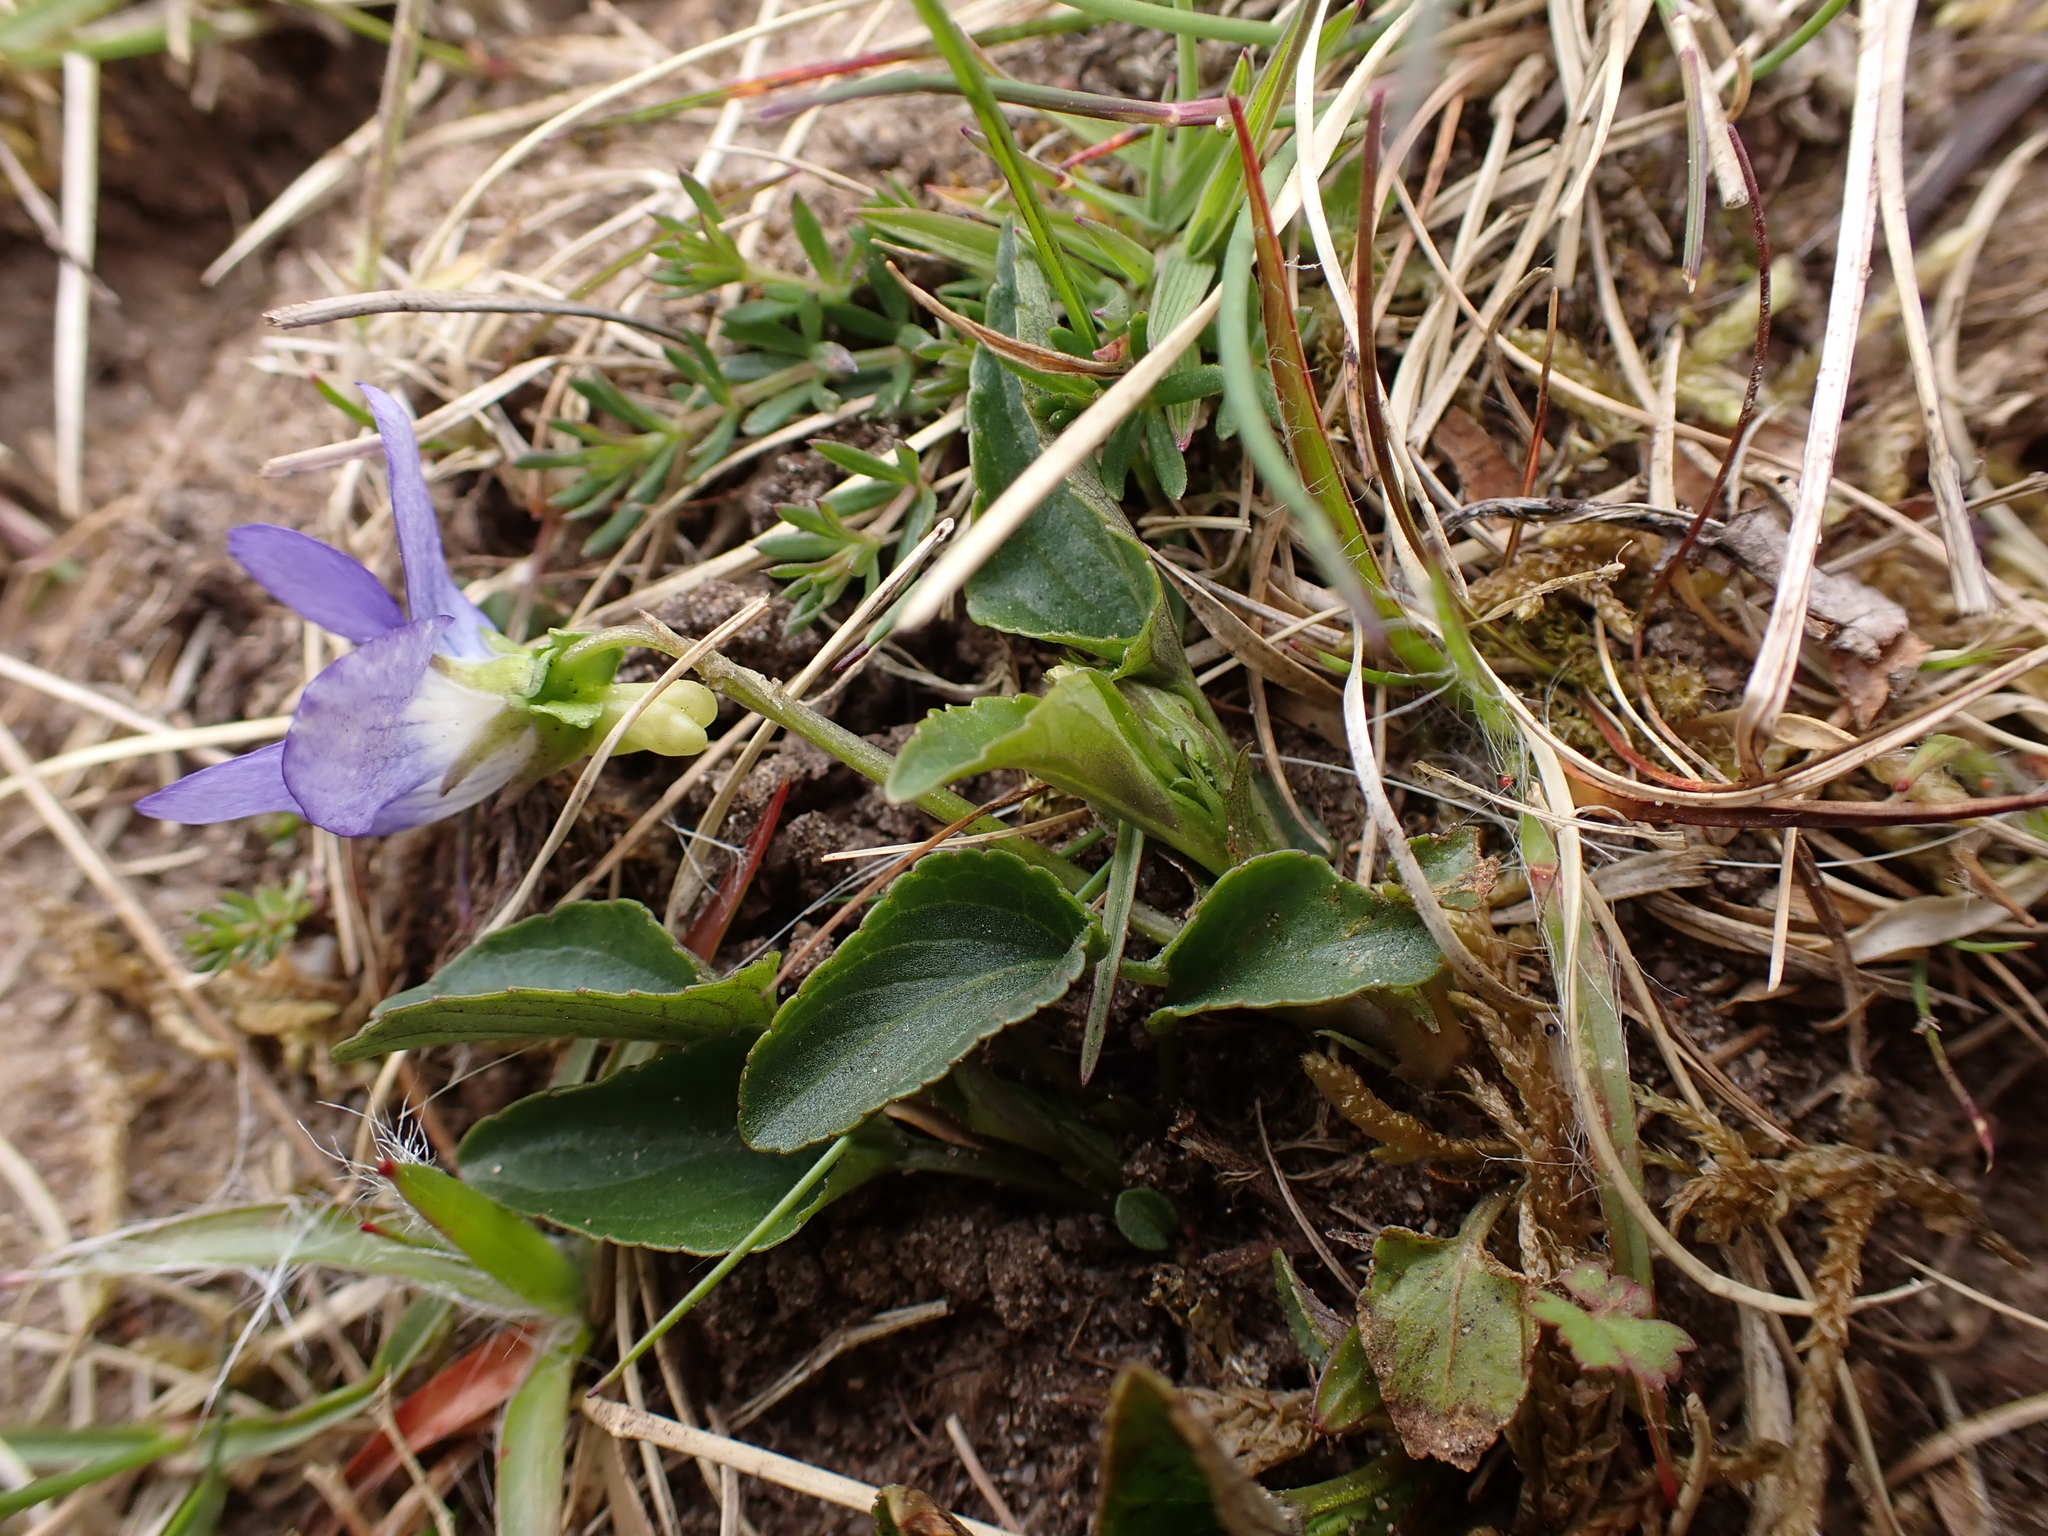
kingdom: Plantae
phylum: Tracheophyta
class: Magnoliopsida
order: Malpighiales
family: Violaceae
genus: Viola
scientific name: Viola canina
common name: Heath dog-violet
